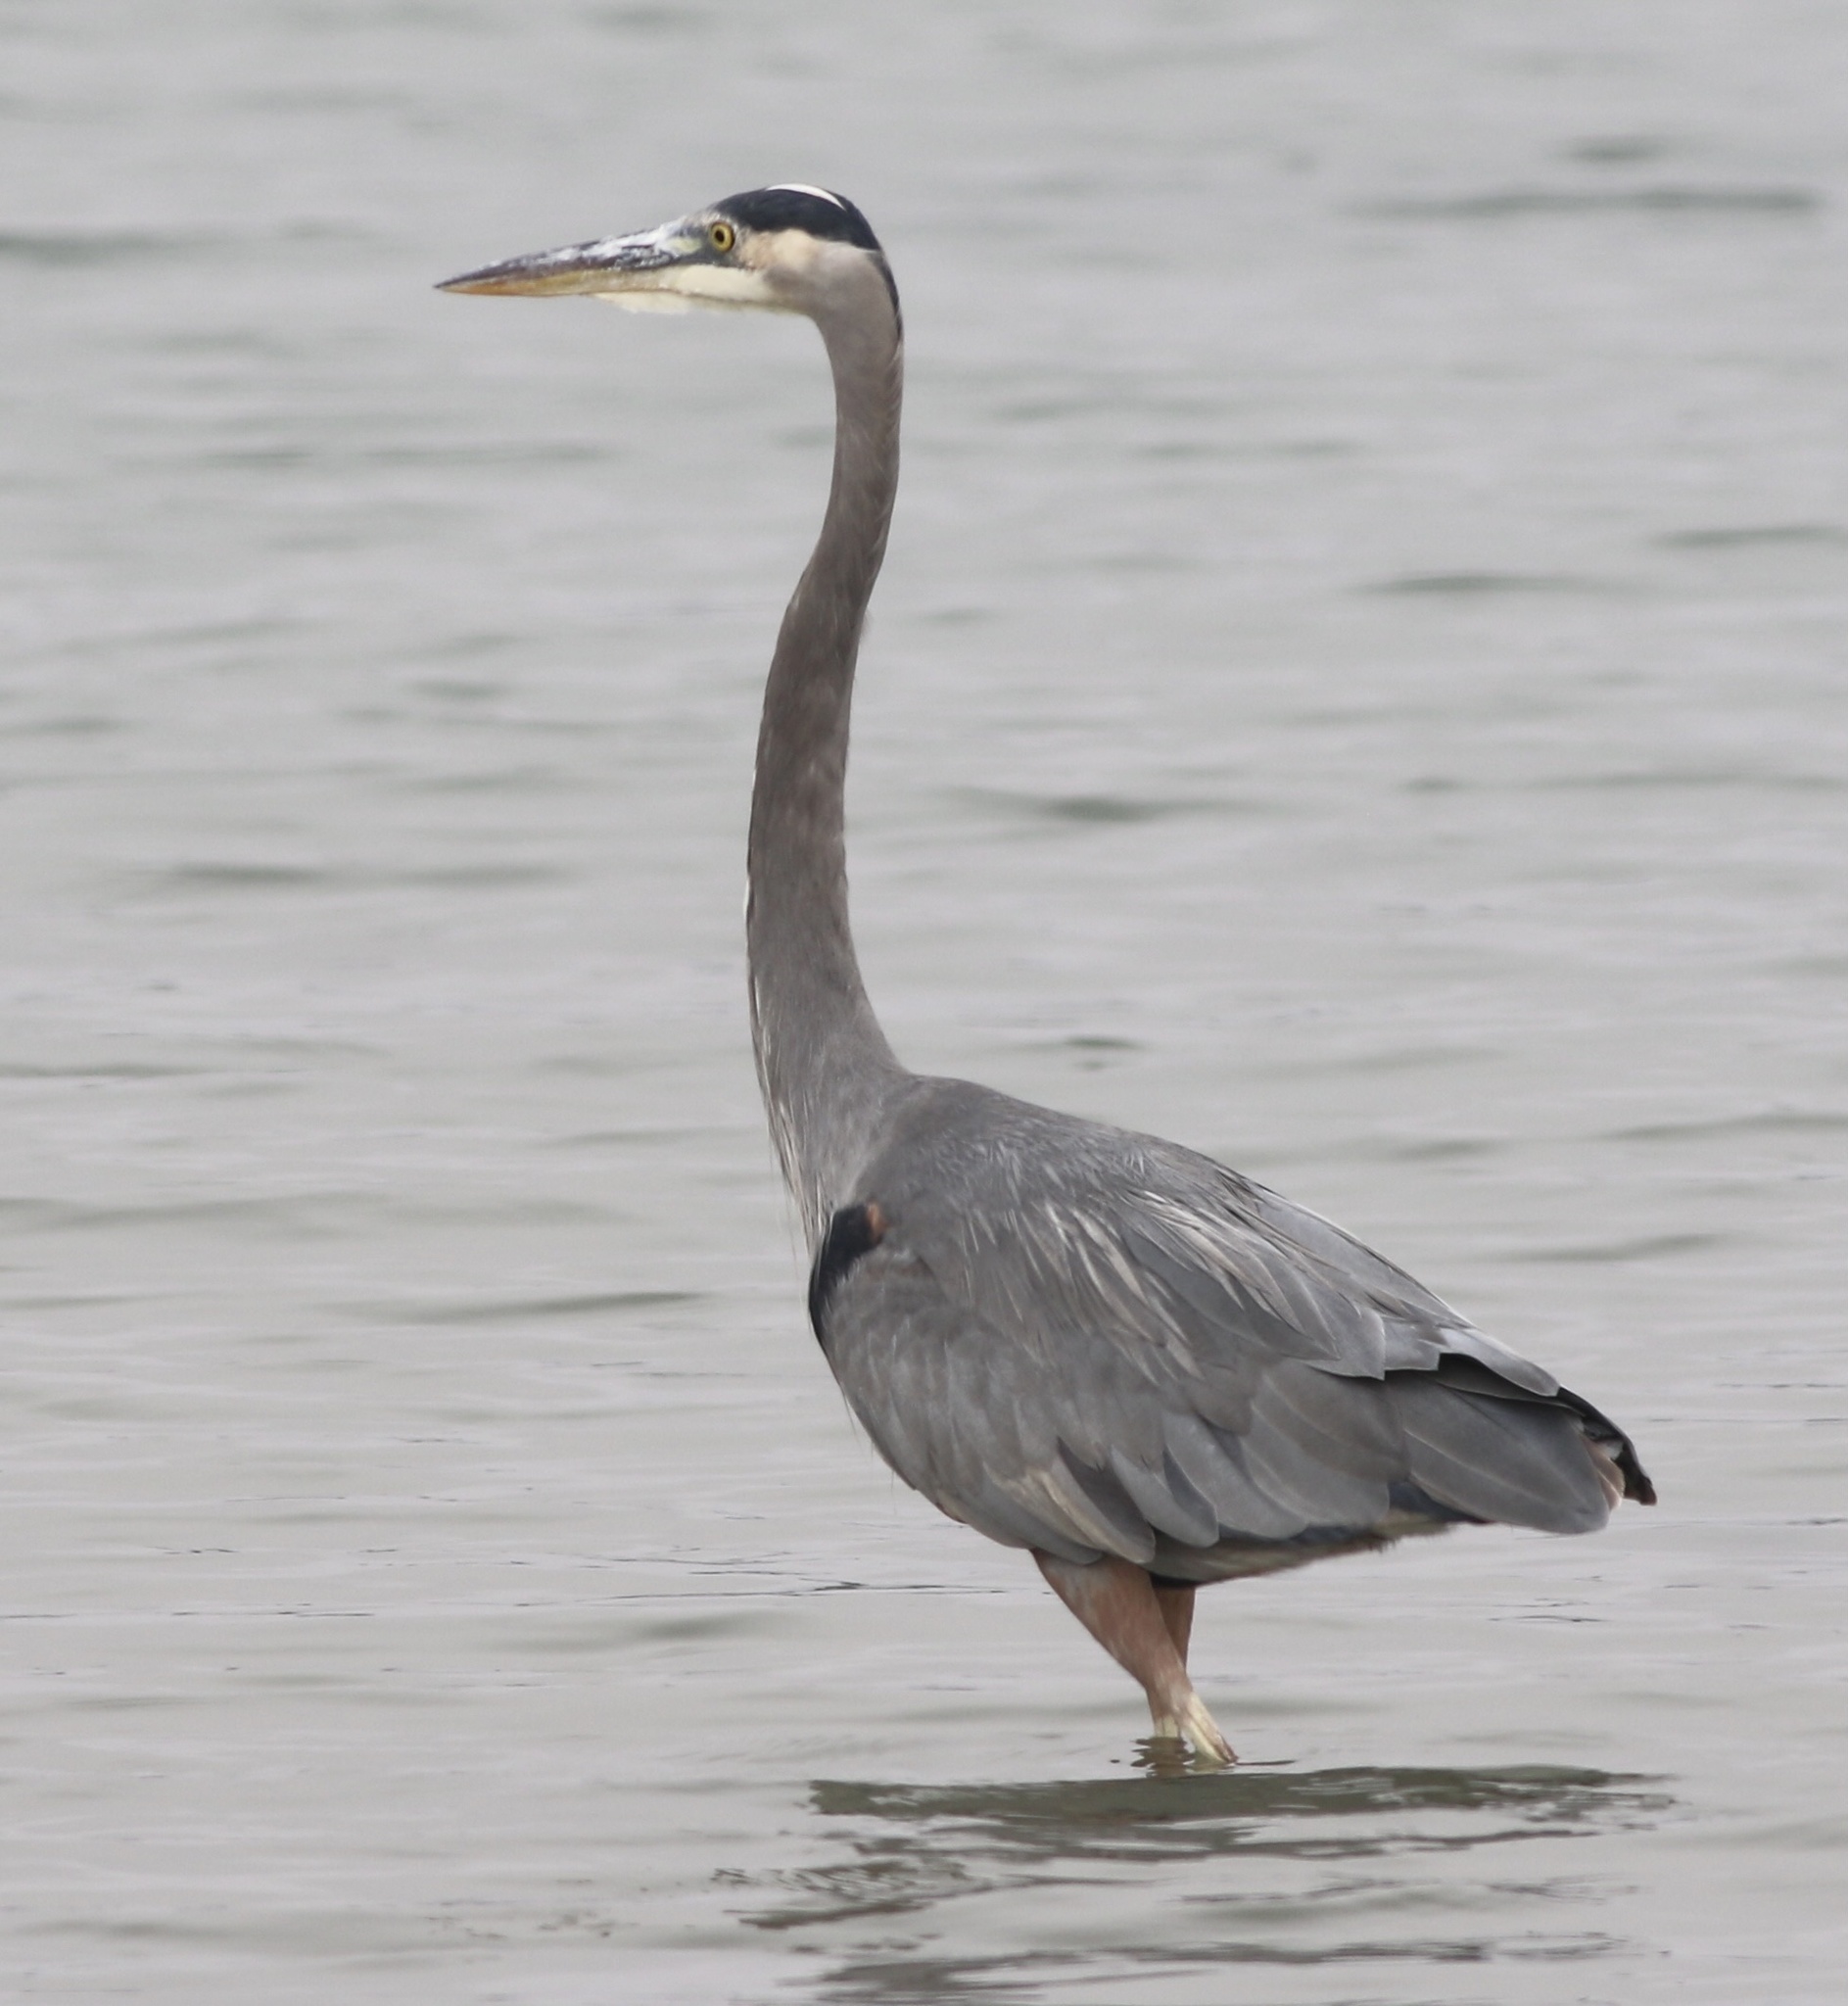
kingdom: Animalia
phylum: Chordata
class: Aves
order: Pelecaniformes
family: Ardeidae
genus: Ardea
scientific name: Ardea herodias
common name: Great blue heron
